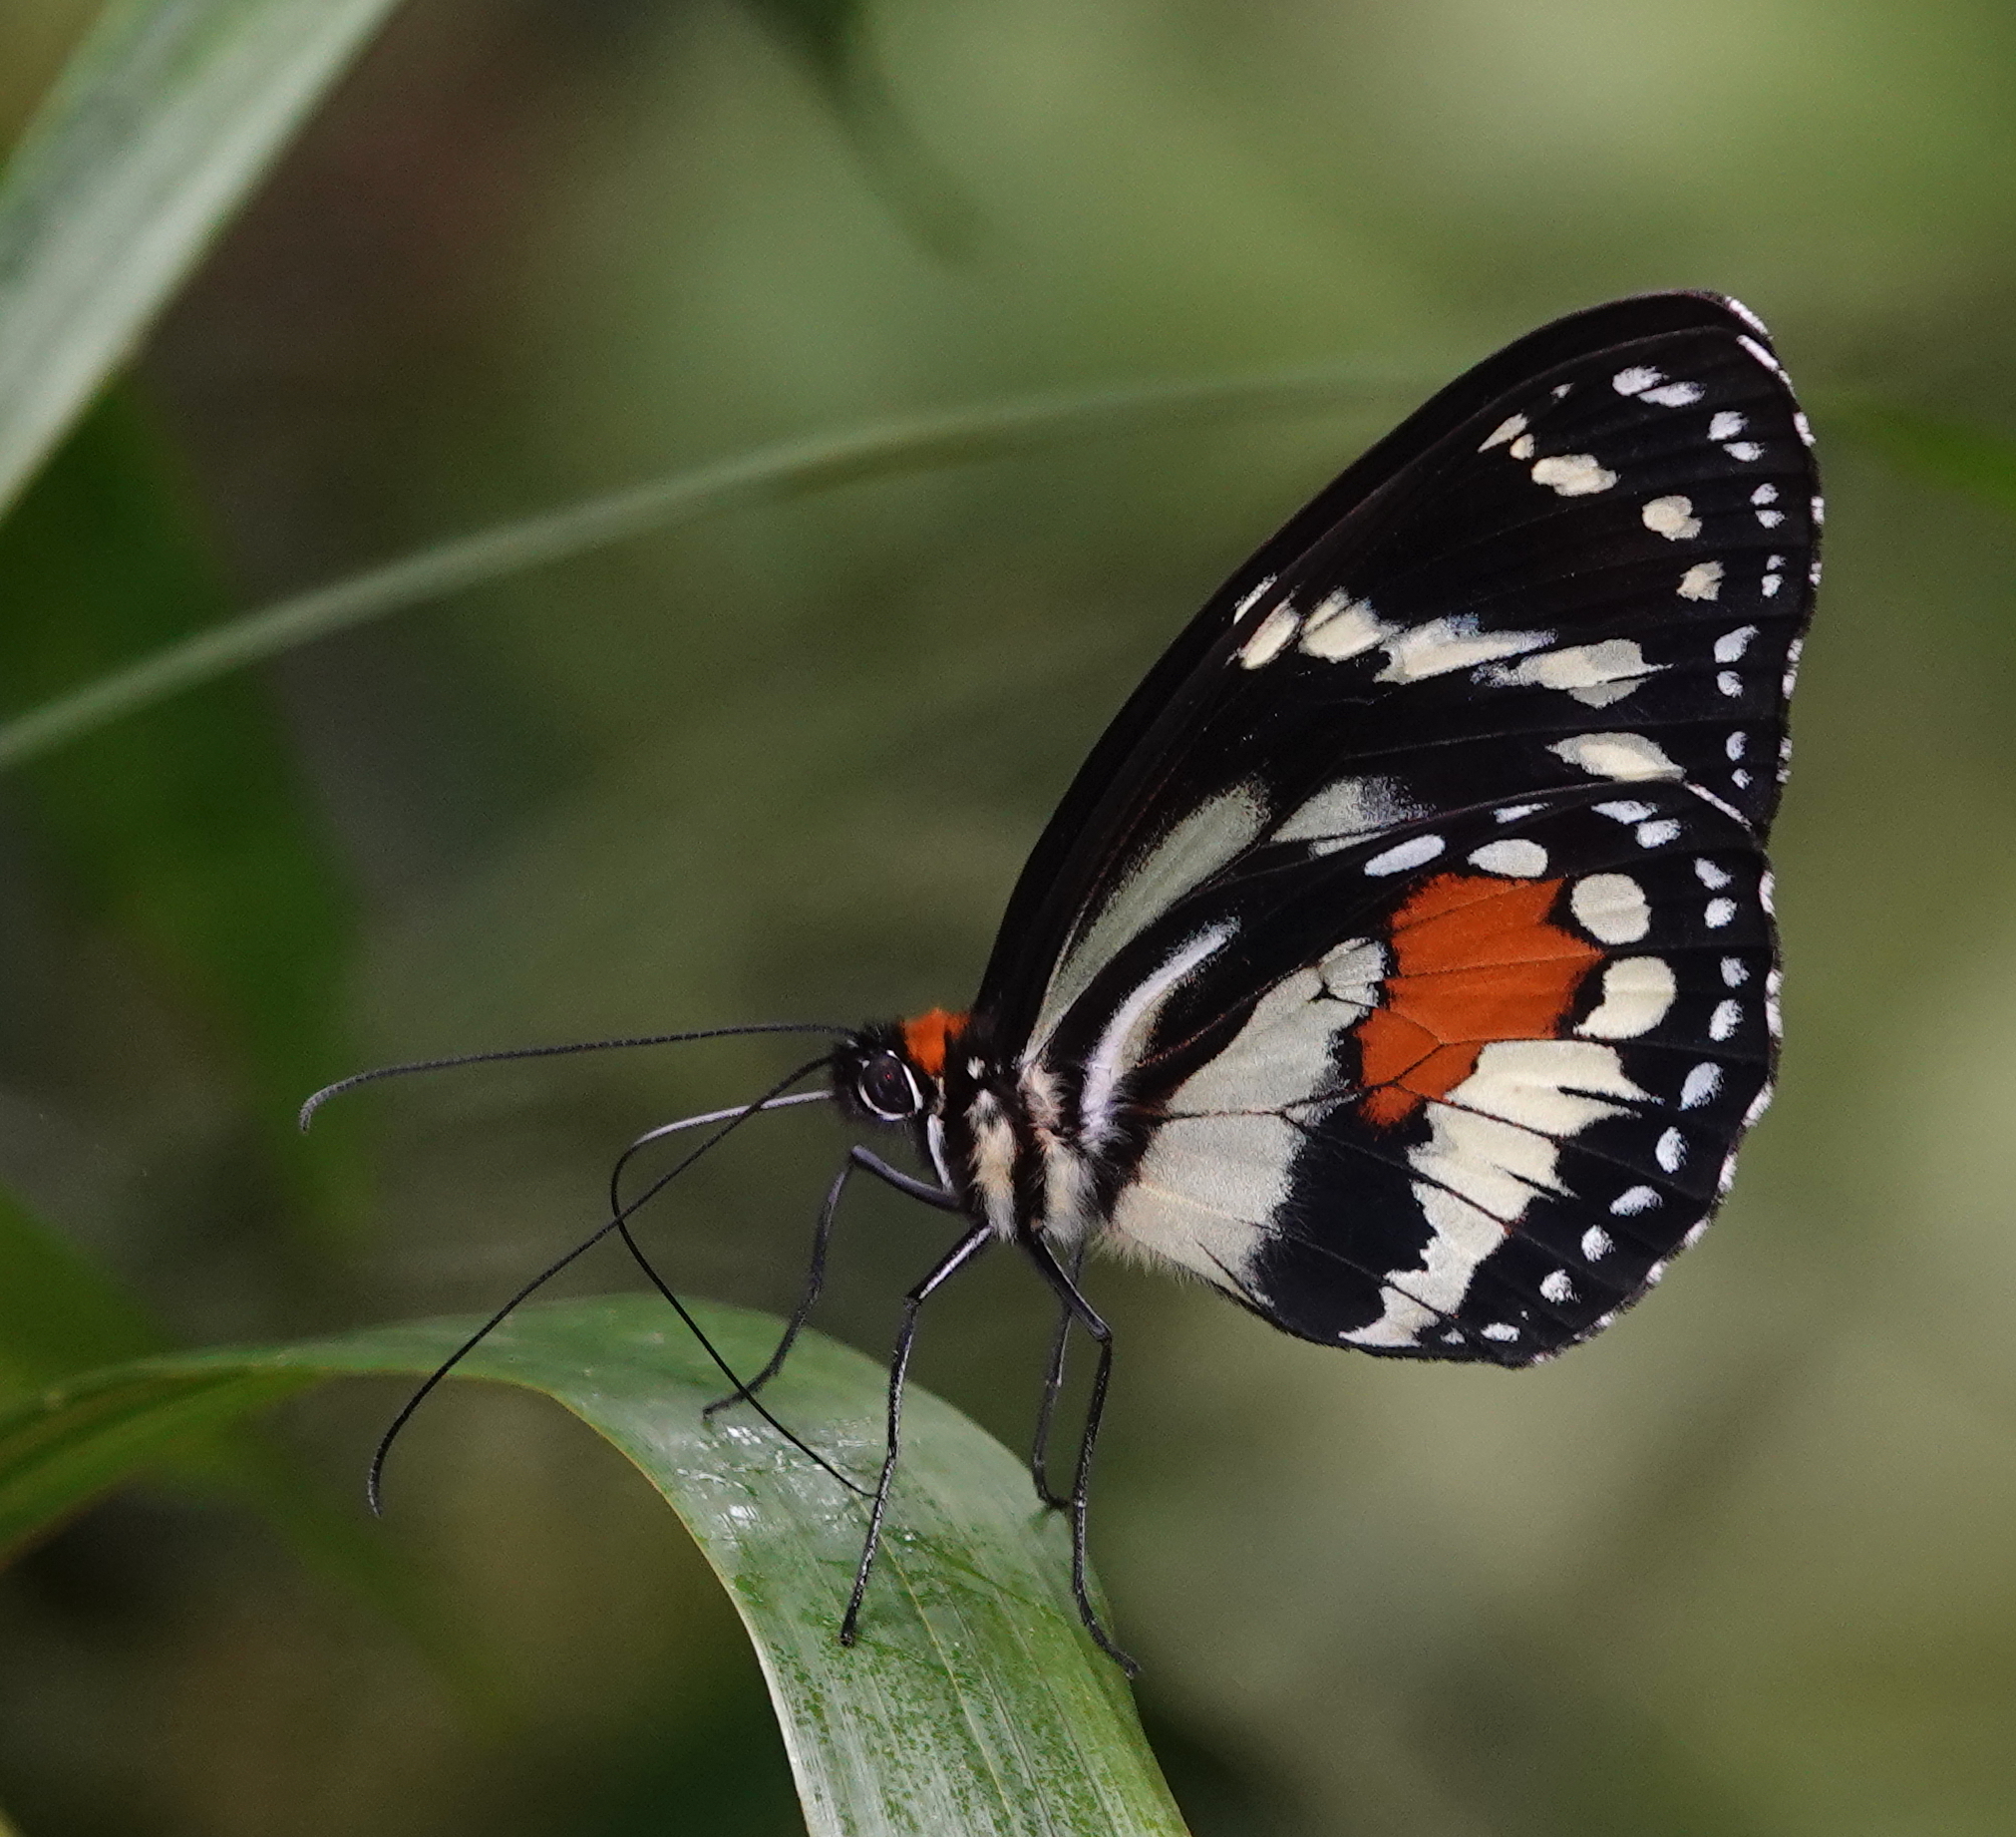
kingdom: Animalia
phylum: Arthropoda
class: Insecta
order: Lepidoptera
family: Nymphalidae
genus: Elzunia
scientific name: Elzunia humboldtii
